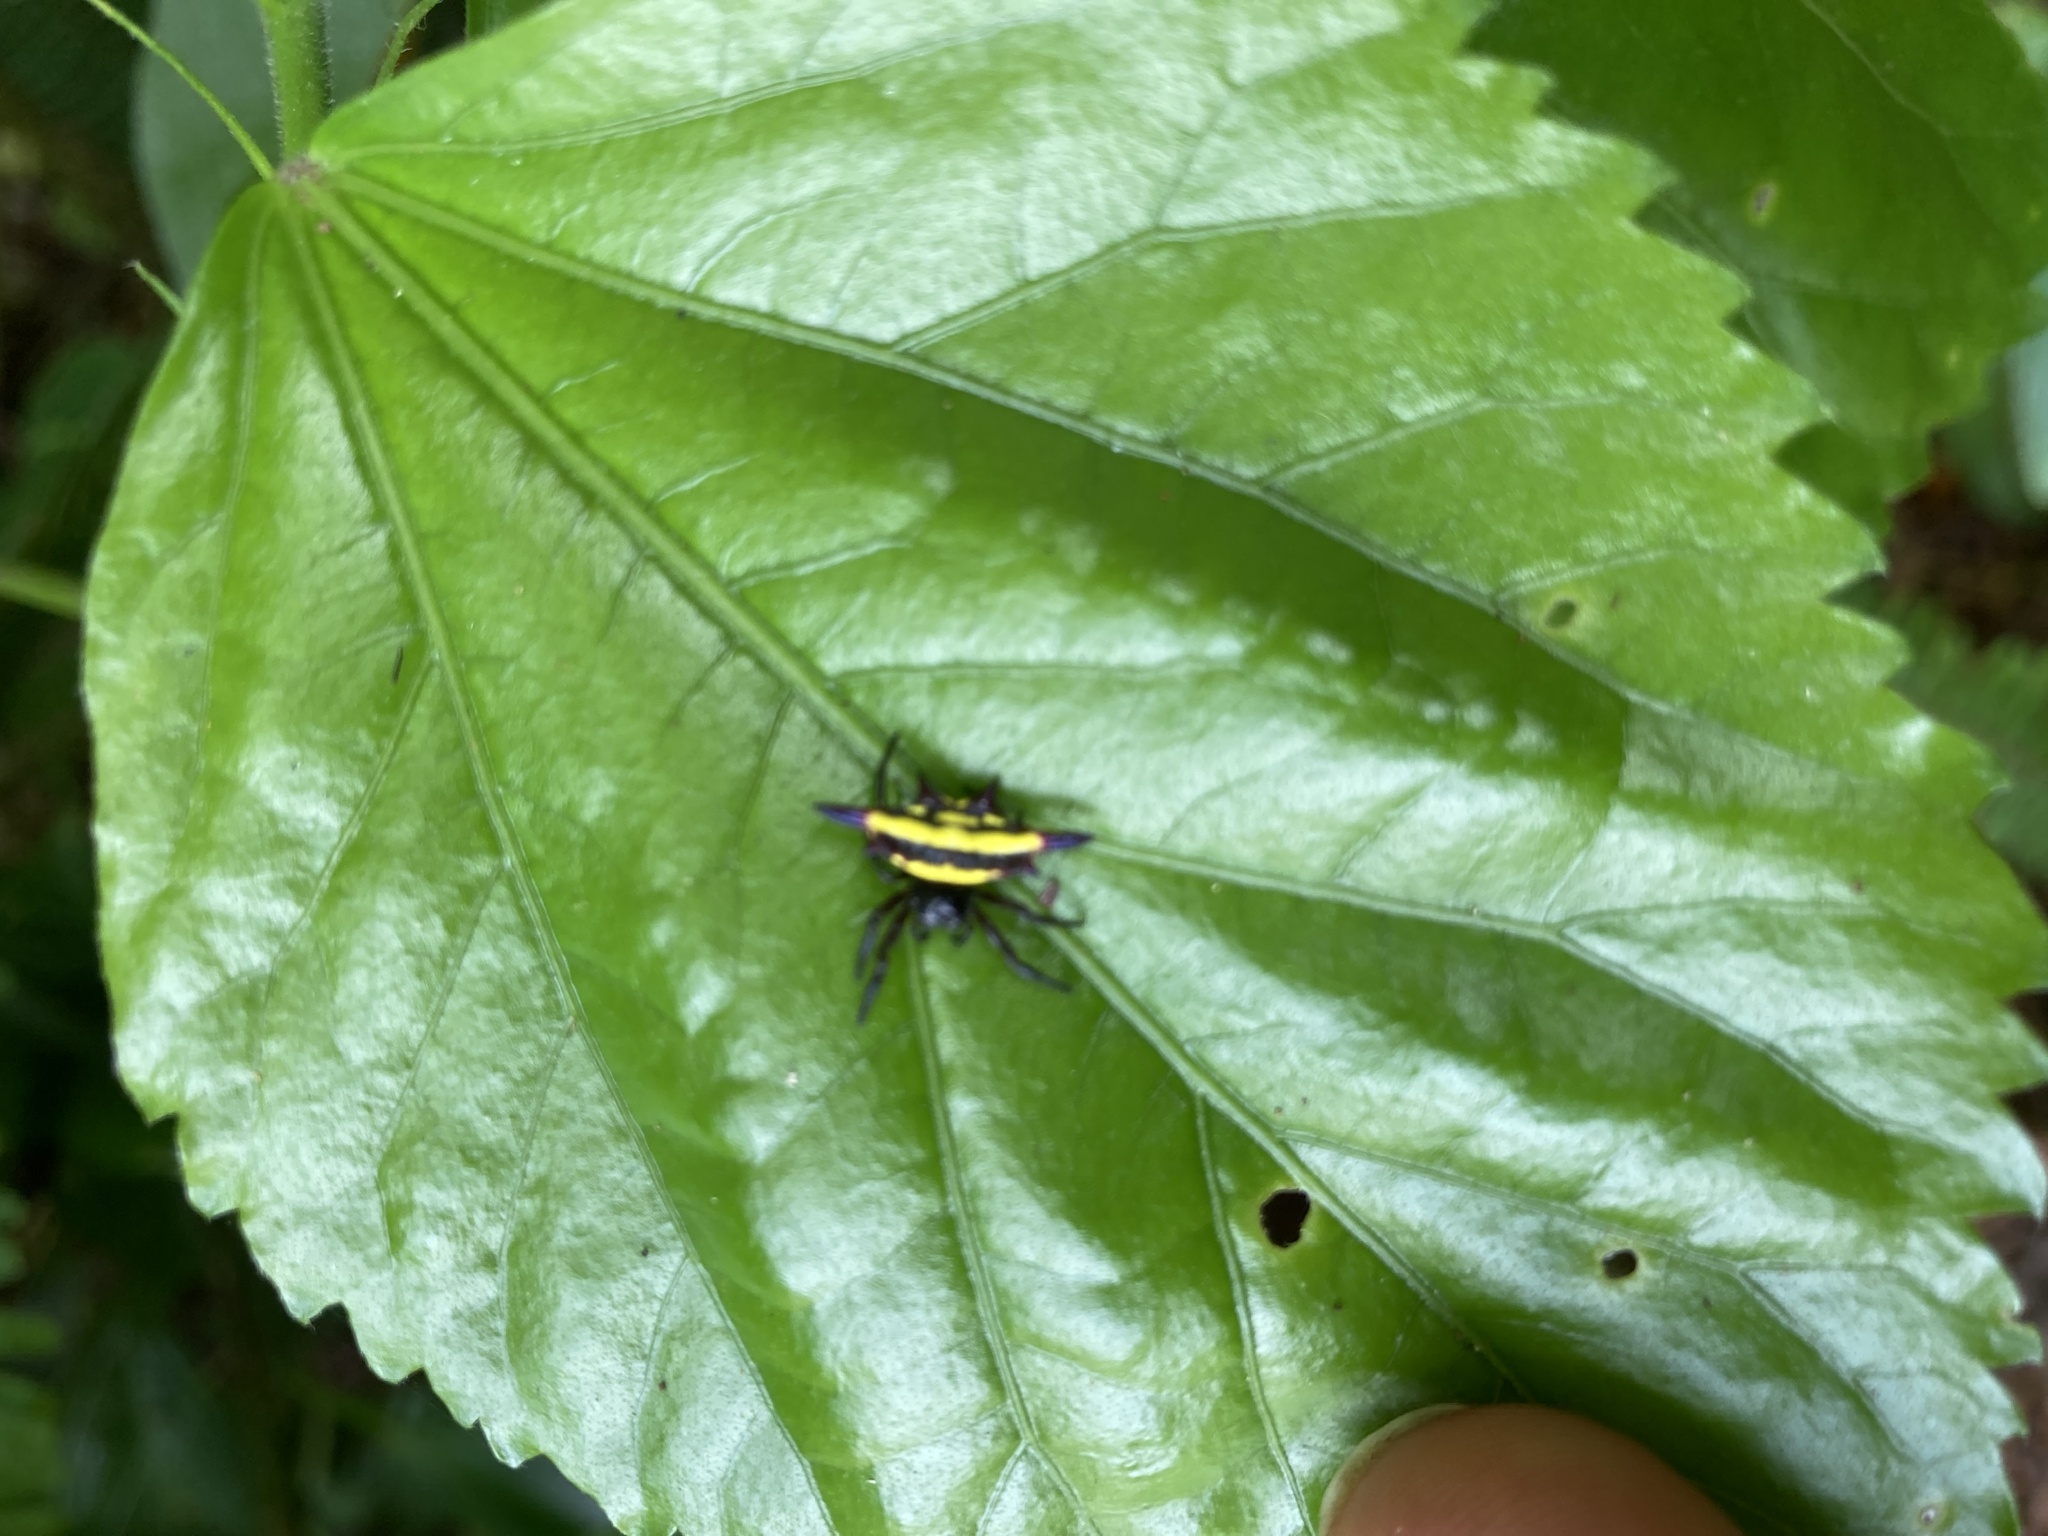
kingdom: Animalia
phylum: Arthropoda
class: Arachnida
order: Araneae
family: Araneidae
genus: Gasteracantha
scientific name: Gasteracantha fornicata
